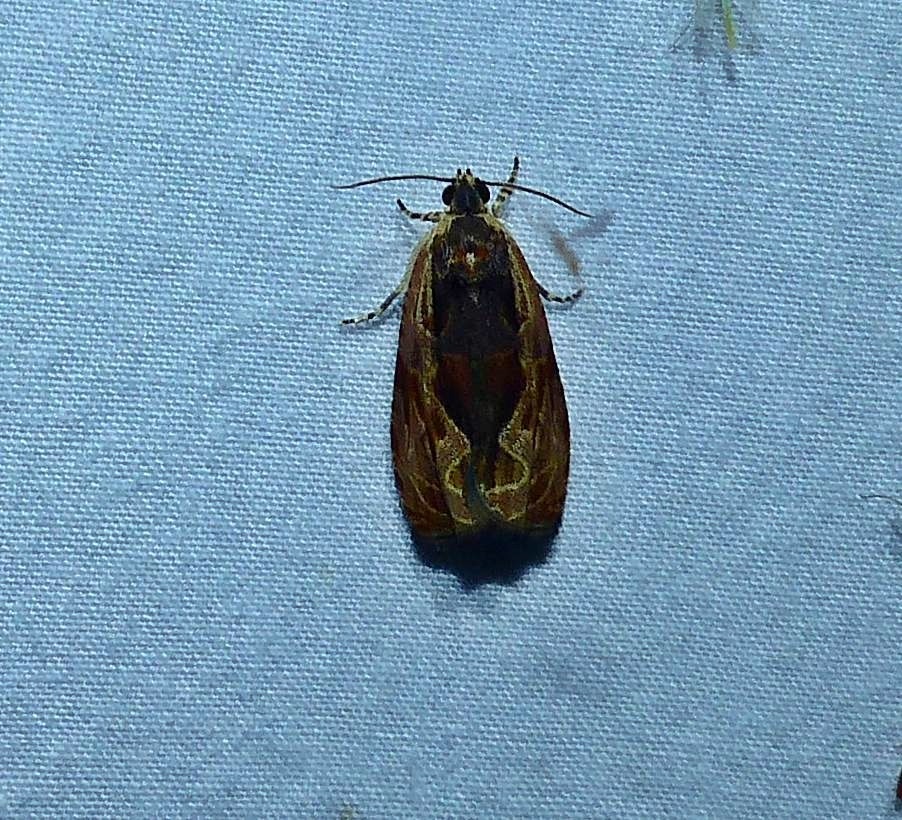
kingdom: Animalia
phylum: Arthropoda
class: Insecta
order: Lepidoptera
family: Tortricidae
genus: Olethreutes
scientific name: Olethreutes nigranum
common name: Variable nigranum moth
